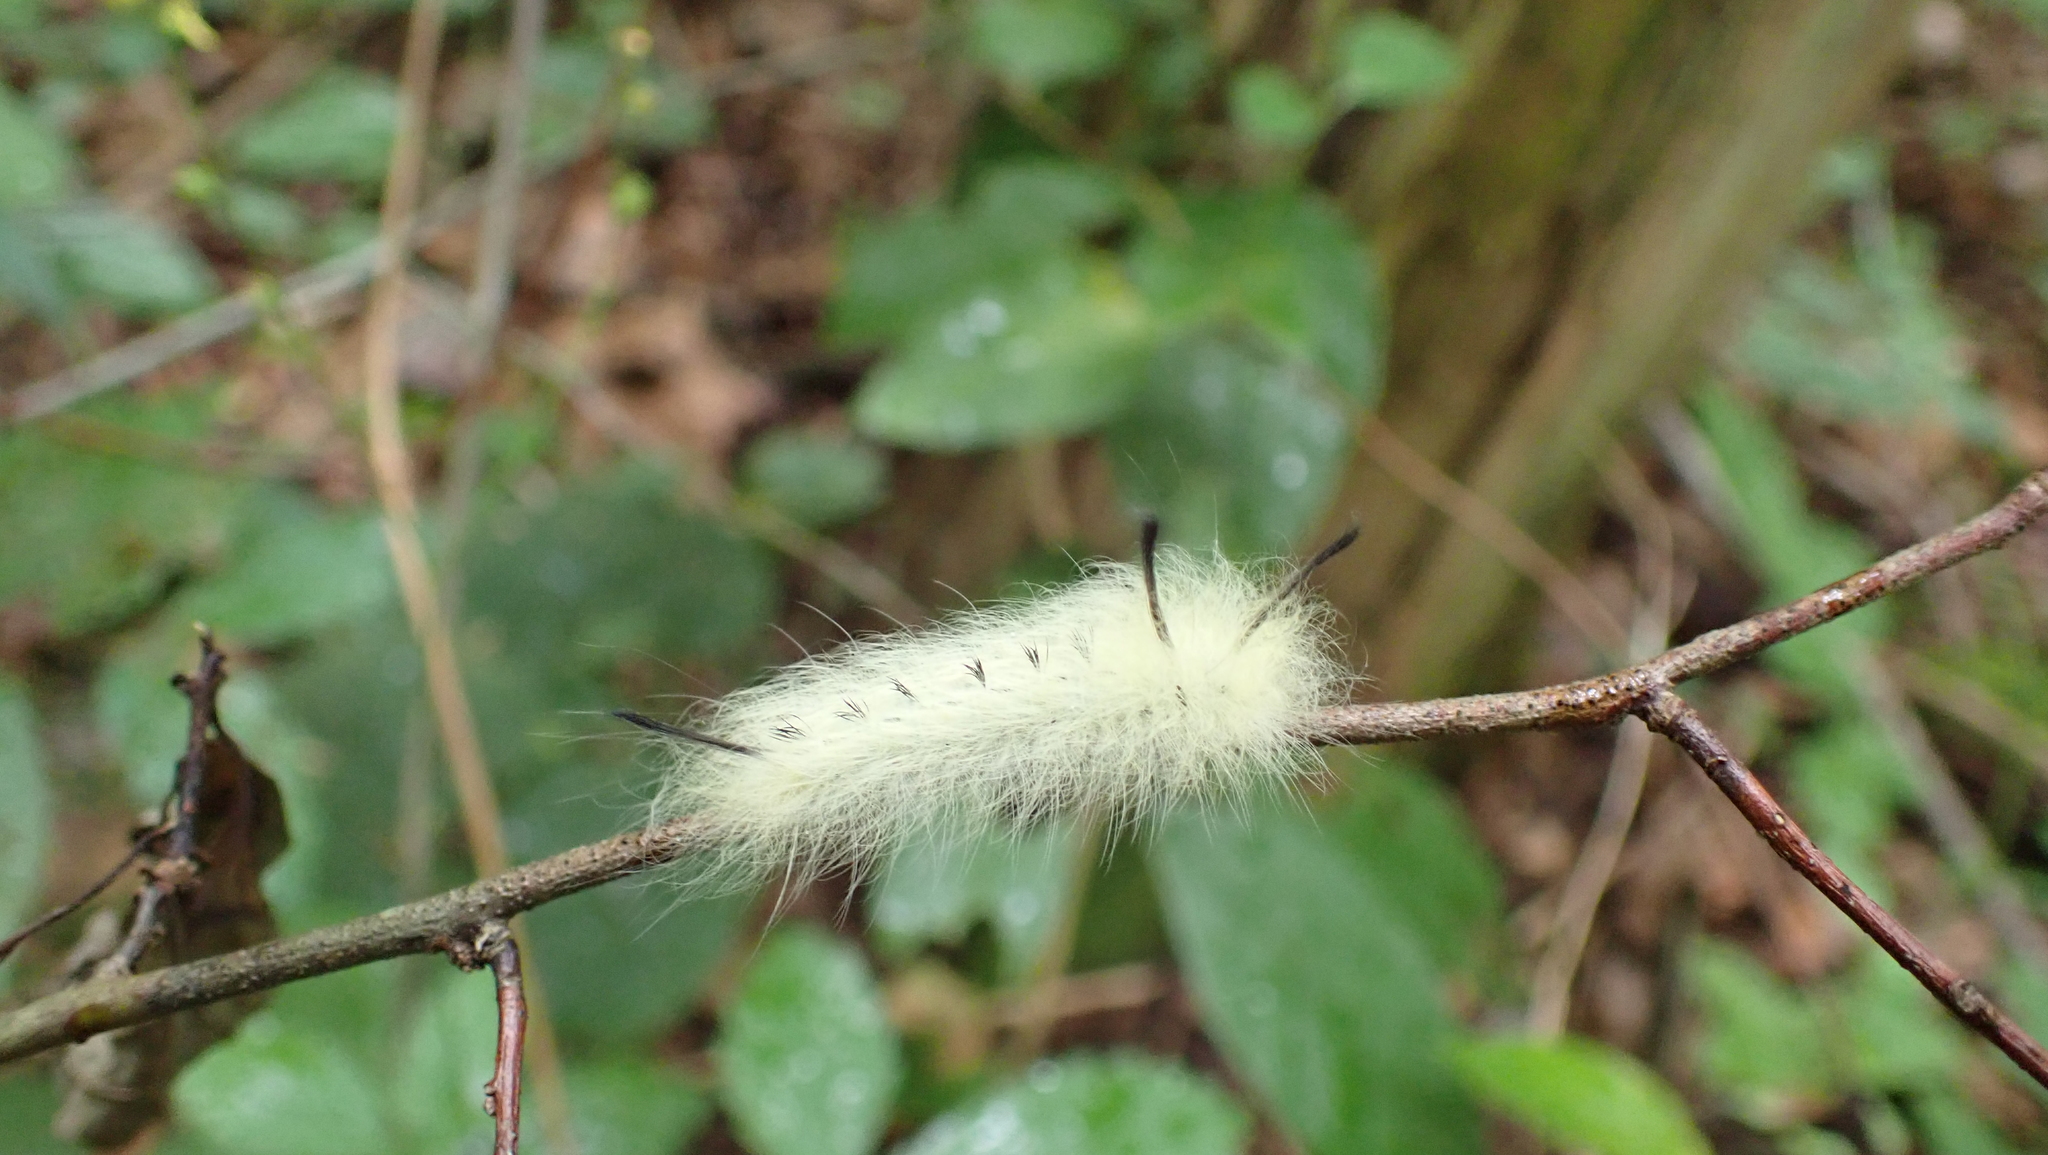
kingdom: Animalia
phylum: Arthropoda
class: Insecta
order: Lepidoptera
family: Apatelodidae
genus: Hygrochroa
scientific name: Hygrochroa Apatelodes torrefacta
